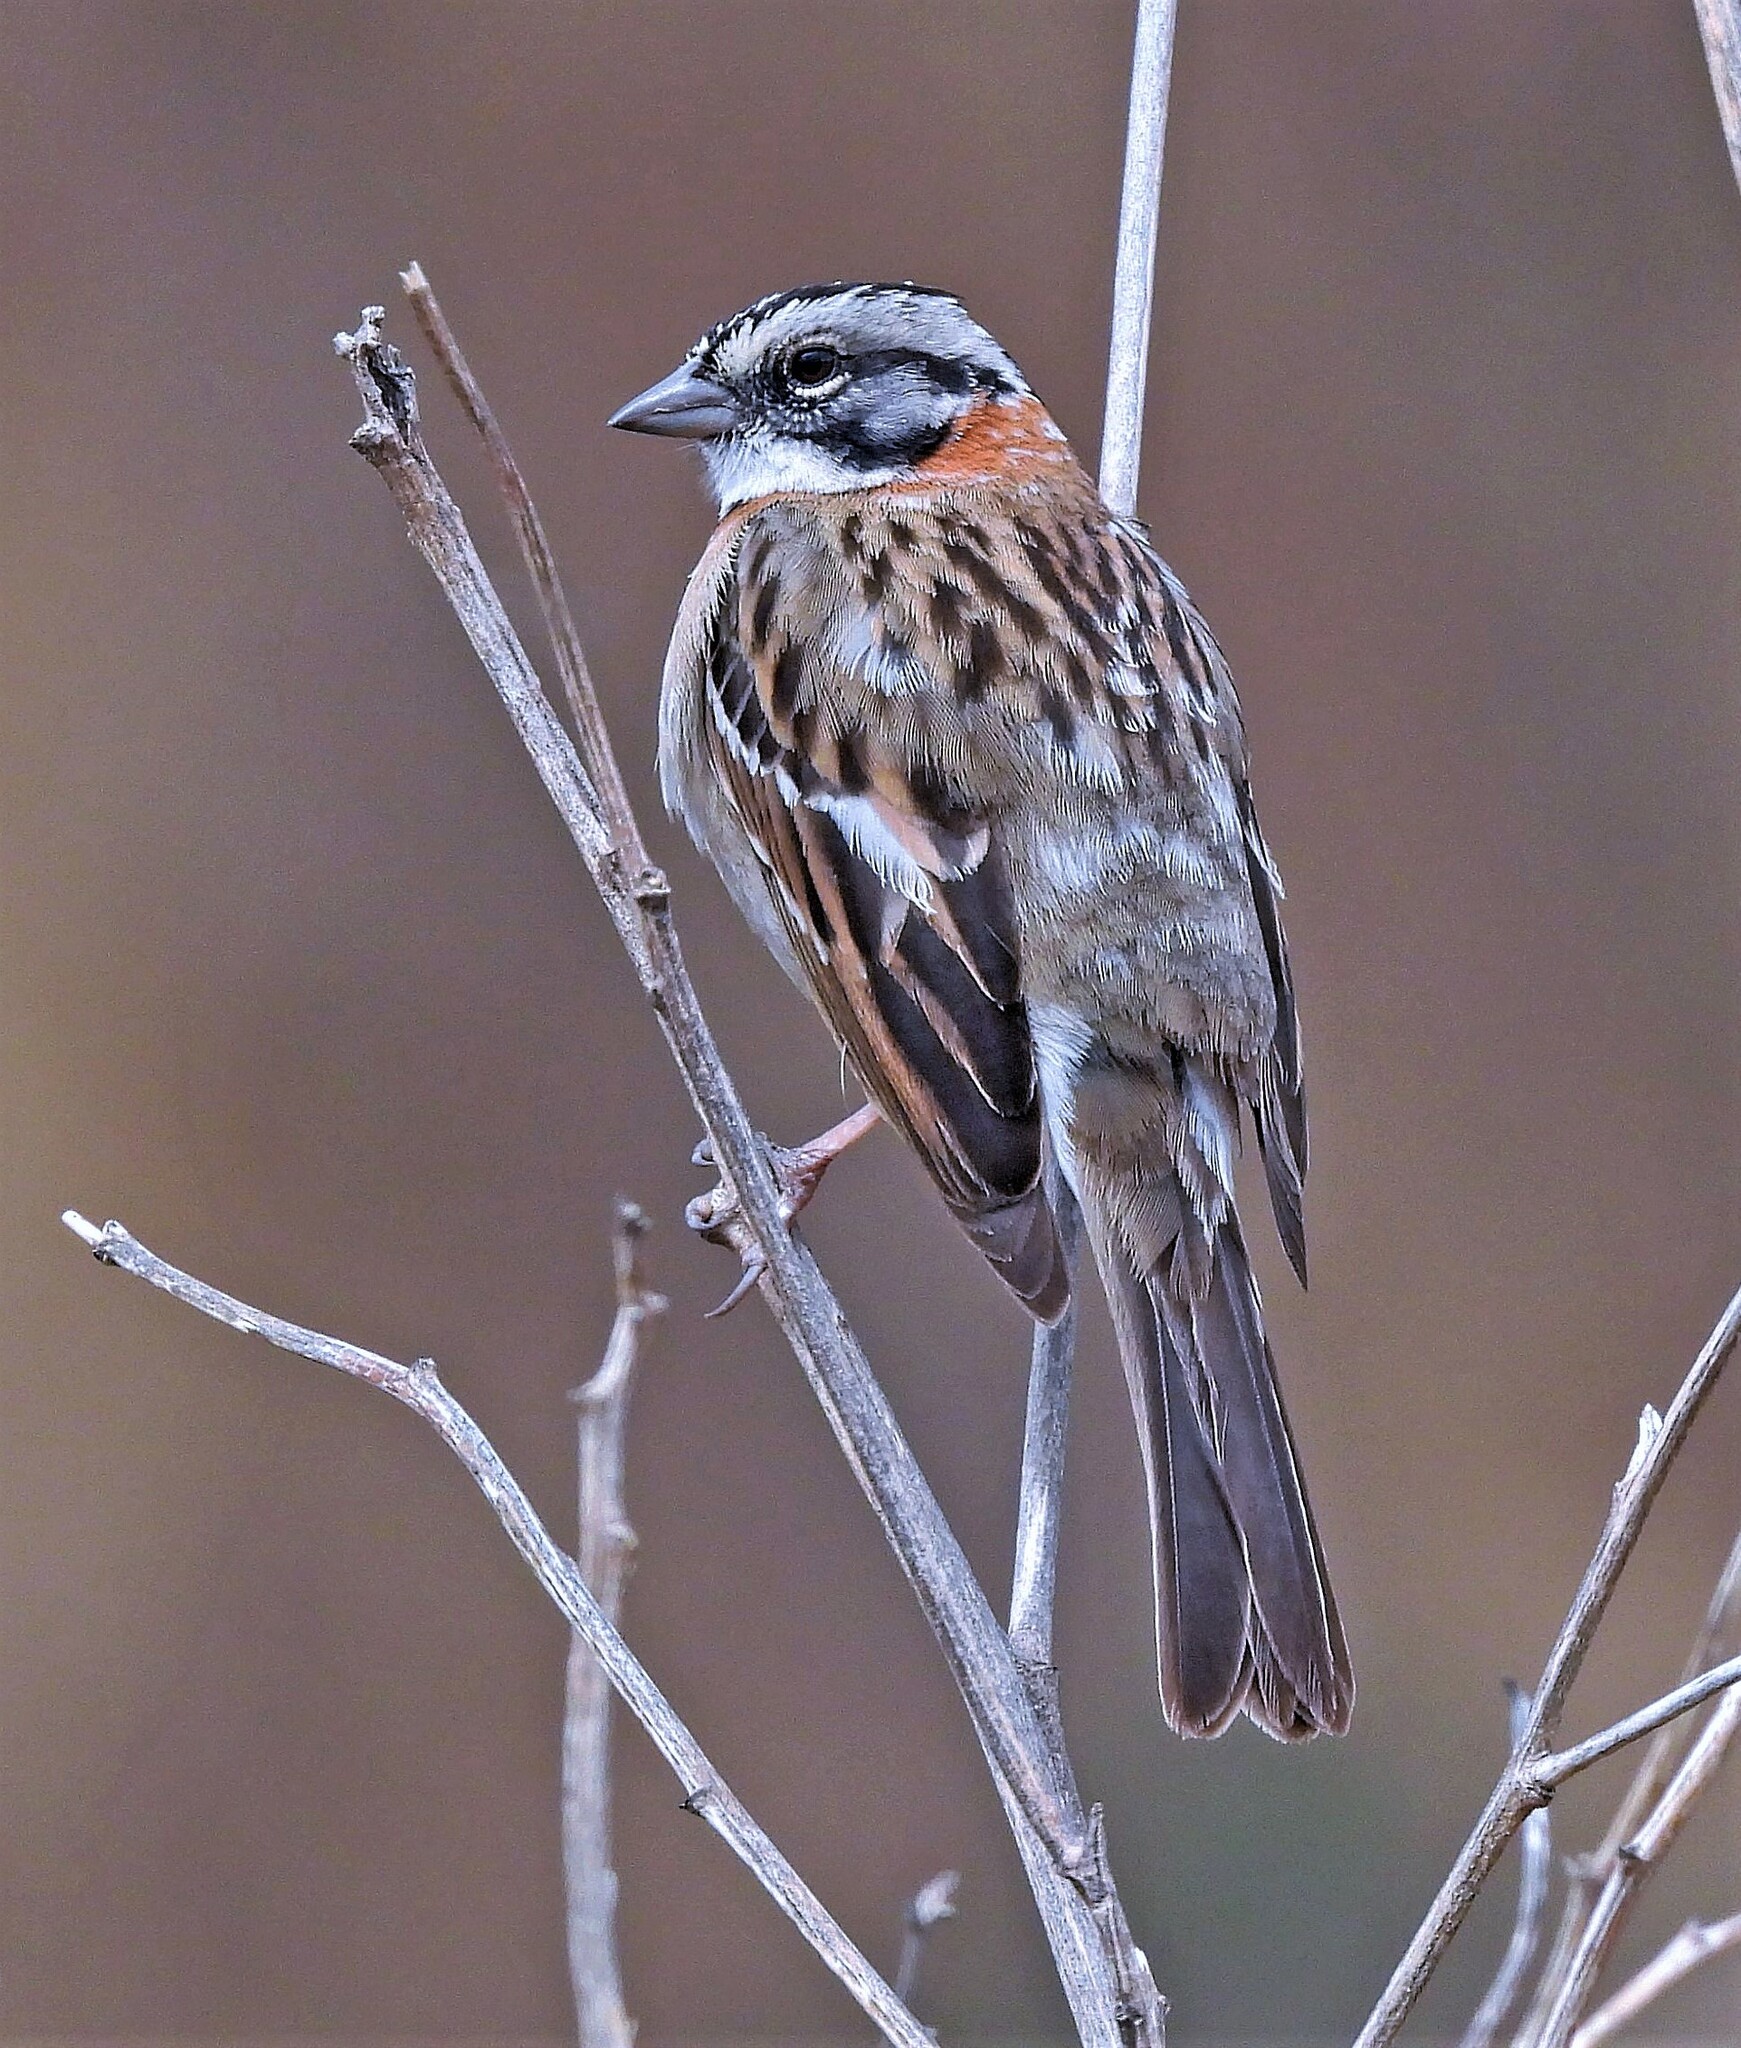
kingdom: Animalia
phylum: Chordata
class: Aves
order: Passeriformes
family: Passerellidae
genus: Zonotrichia
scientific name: Zonotrichia capensis
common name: Rufous-collared sparrow
